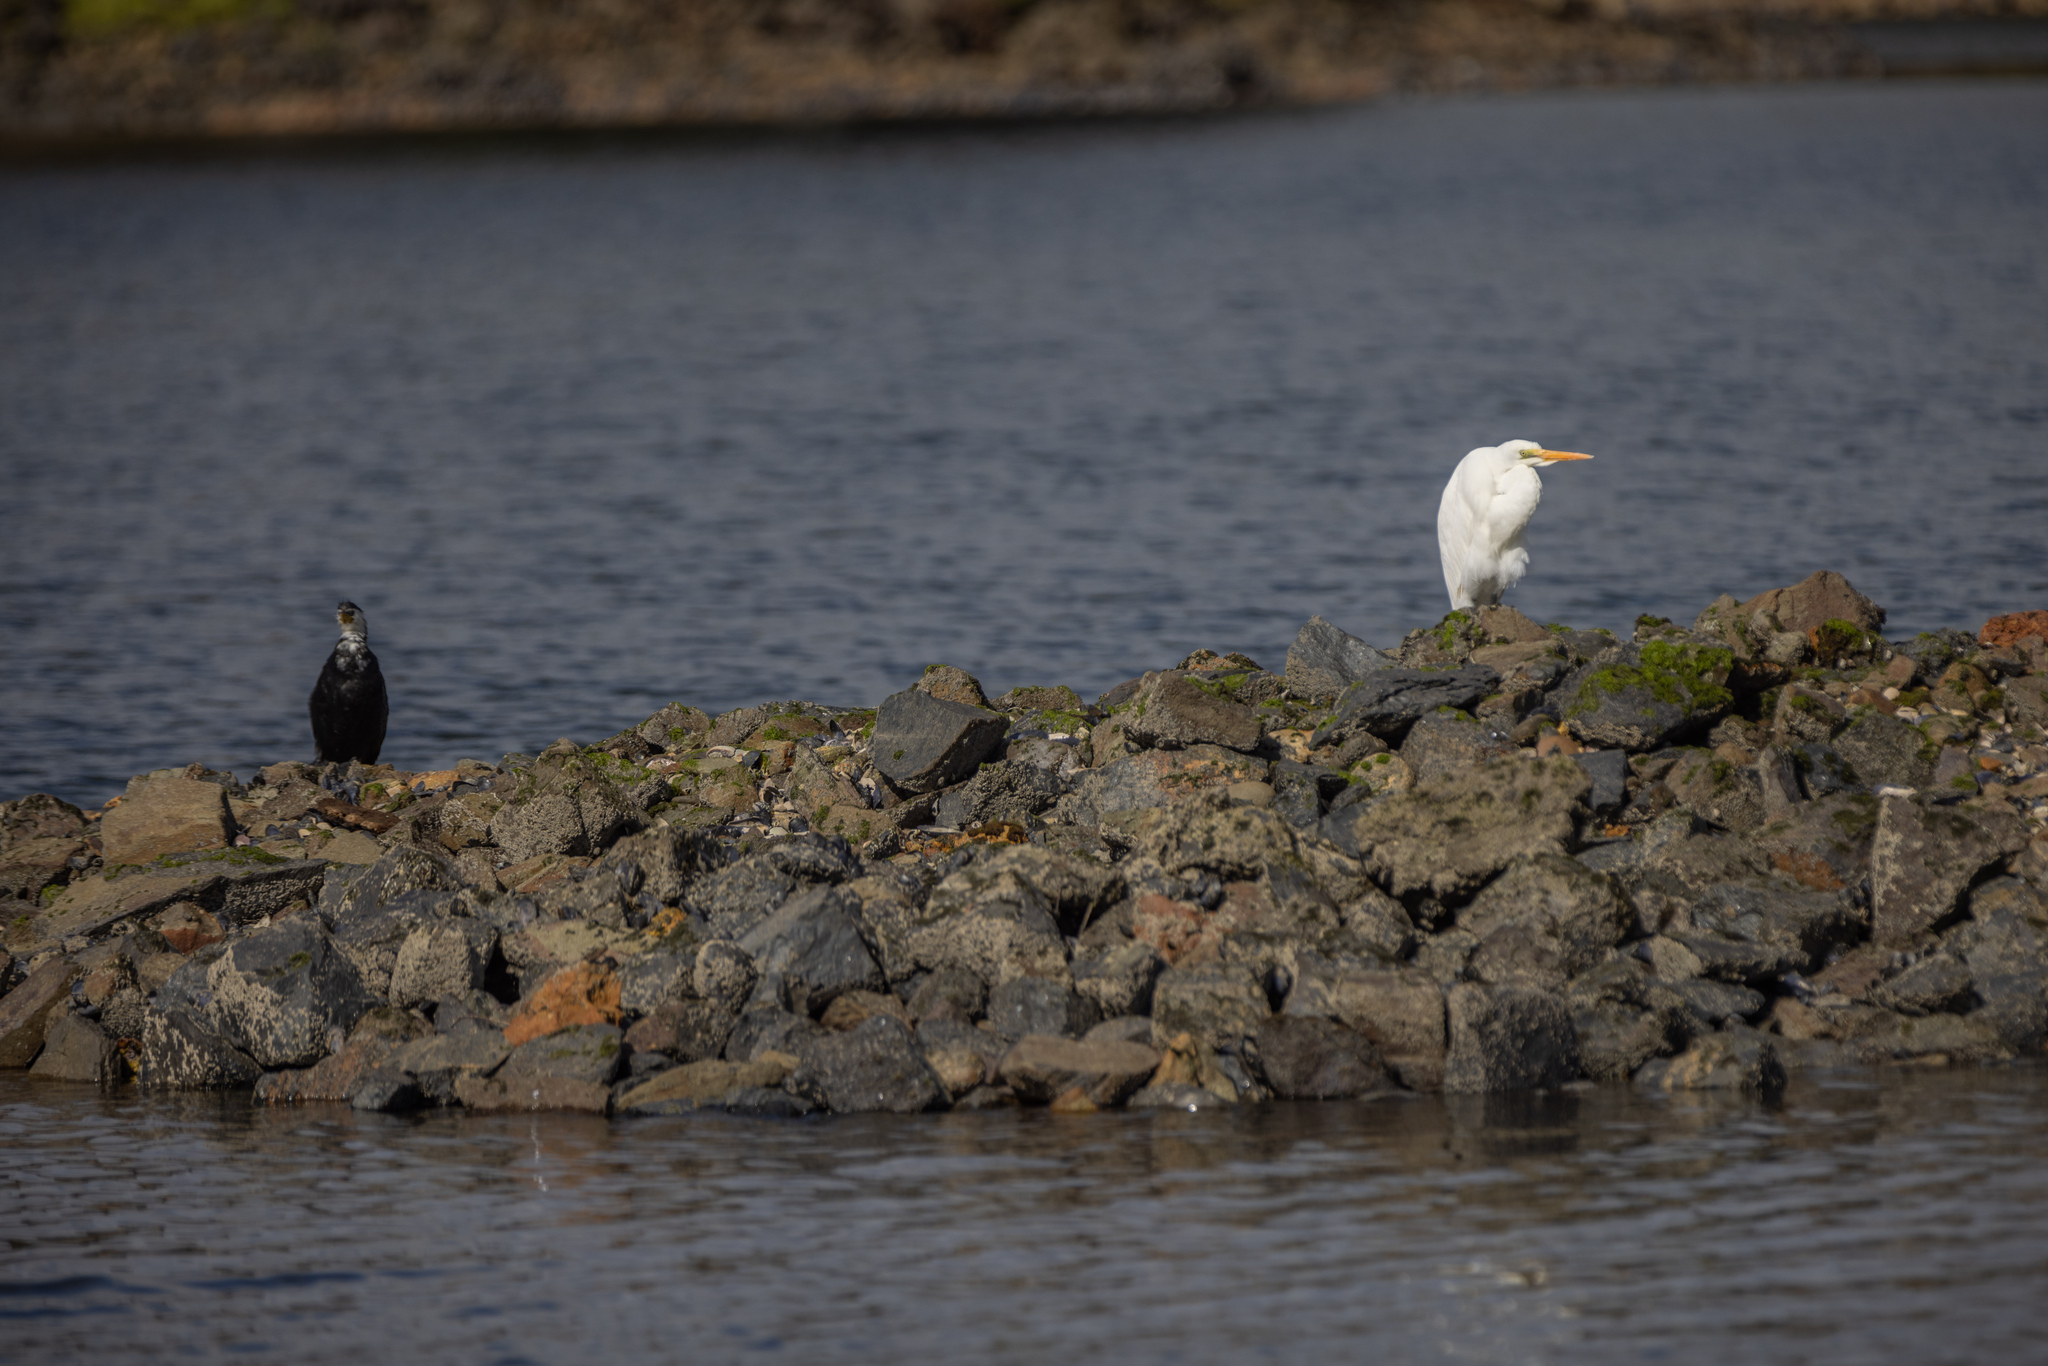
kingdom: Animalia
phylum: Chordata
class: Aves
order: Pelecaniformes
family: Ardeidae
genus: Ardea
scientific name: Ardea modesta
